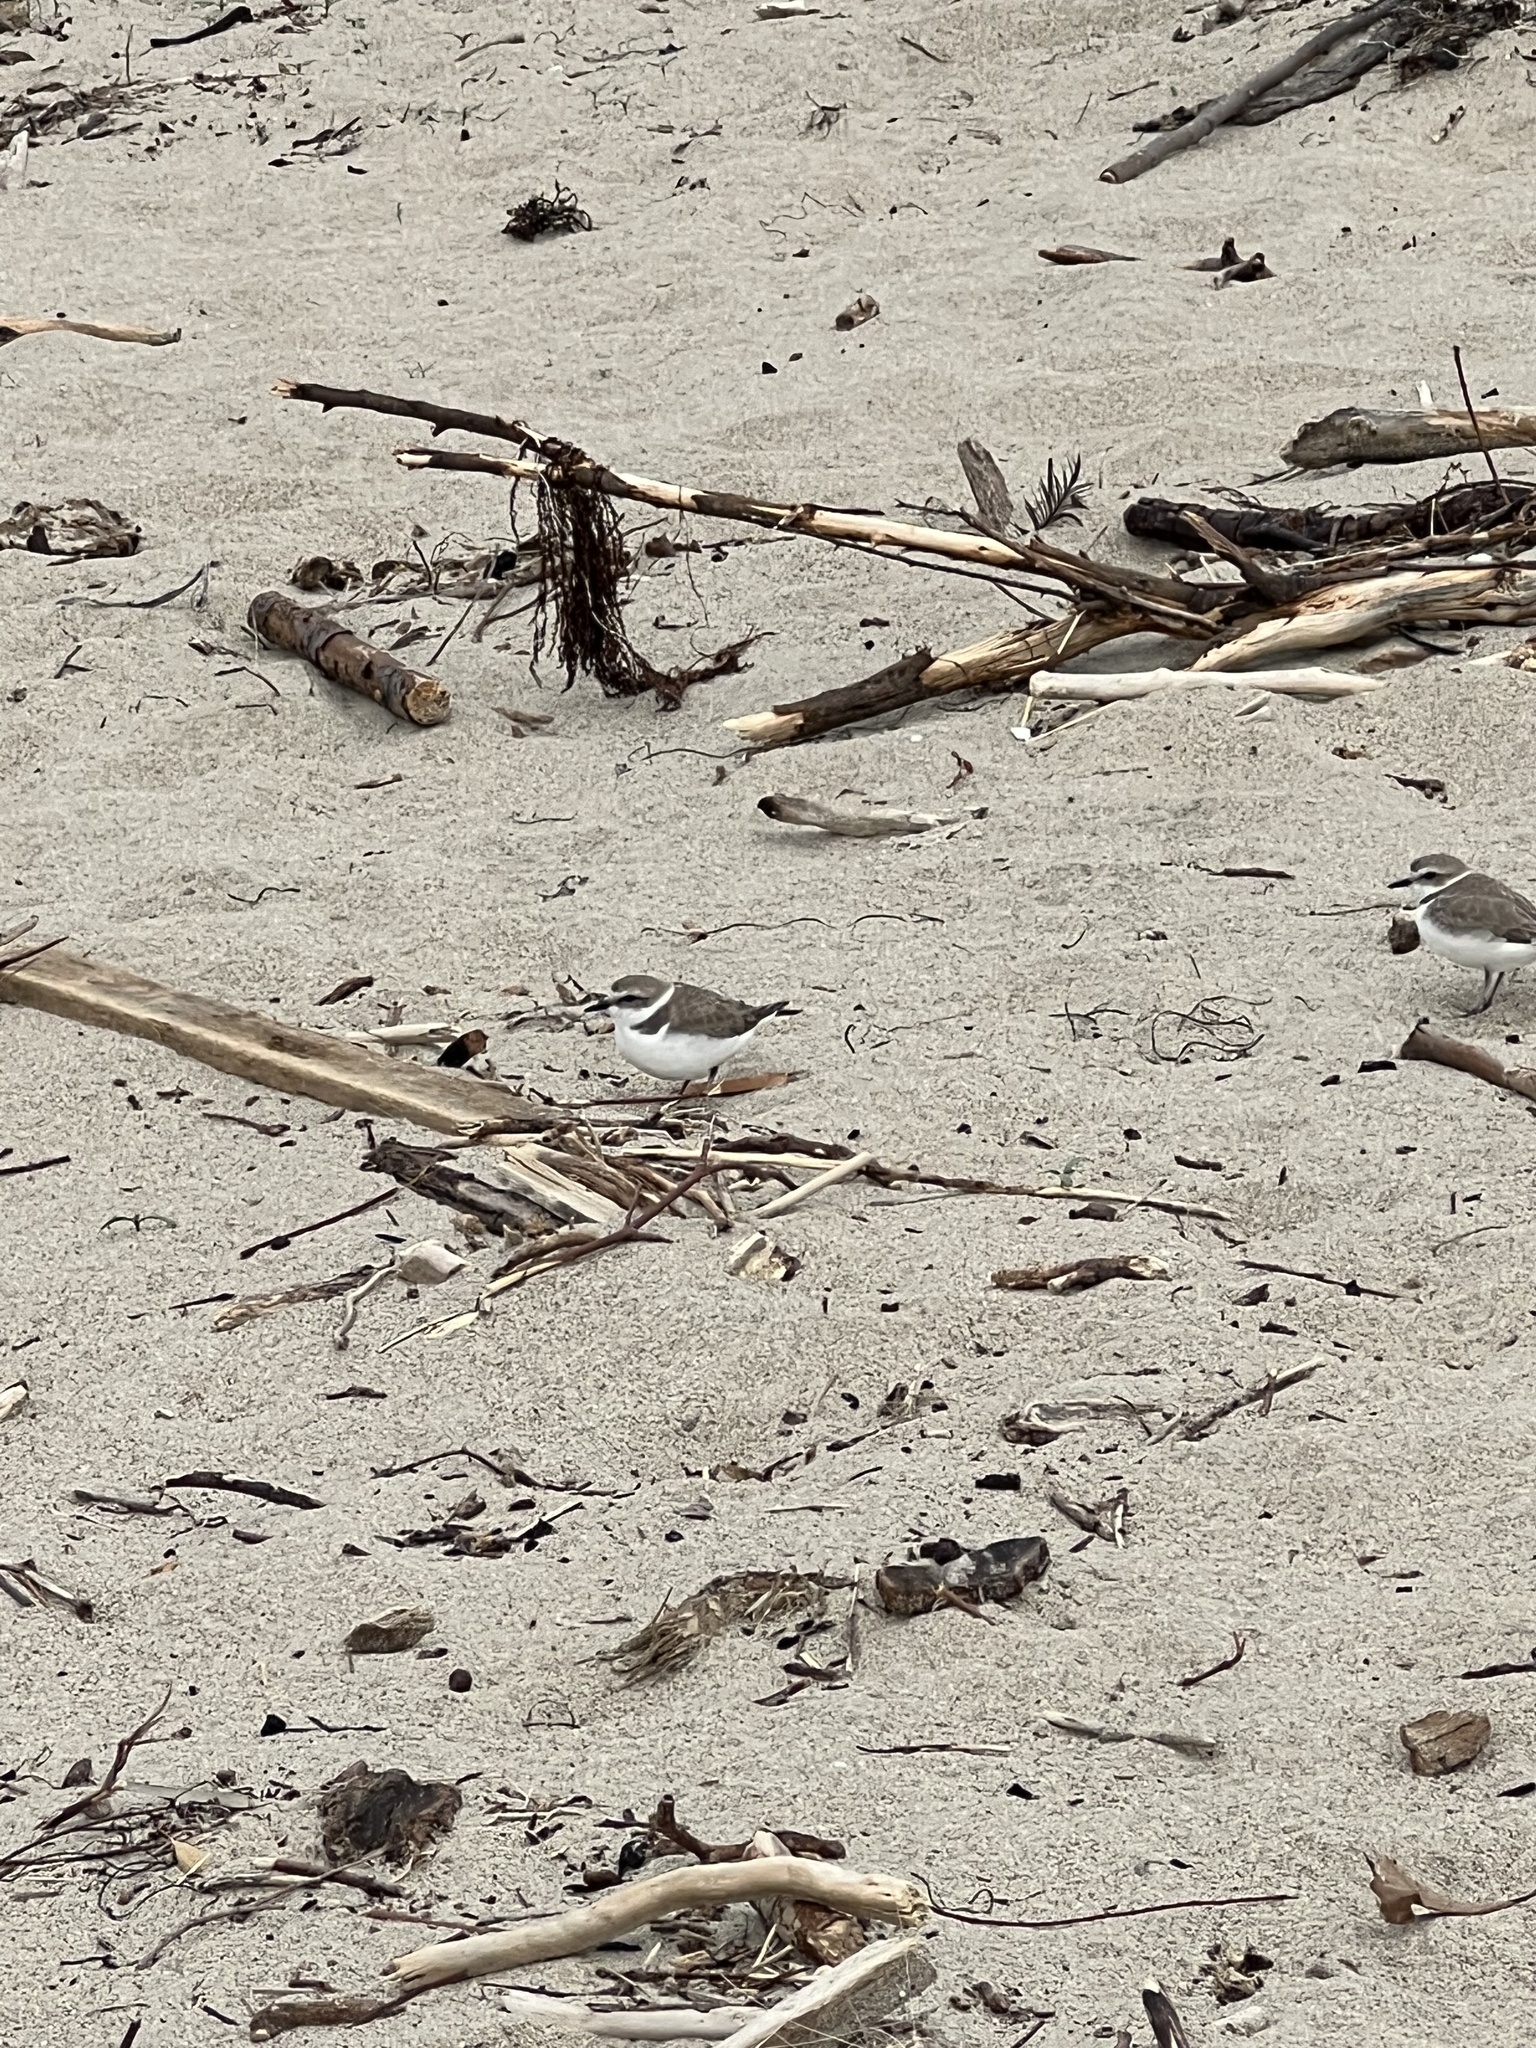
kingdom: Animalia
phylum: Chordata
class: Aves
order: Charadriiformes
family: Charadriidae
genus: Anarhynchus
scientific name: Anarhynchus
